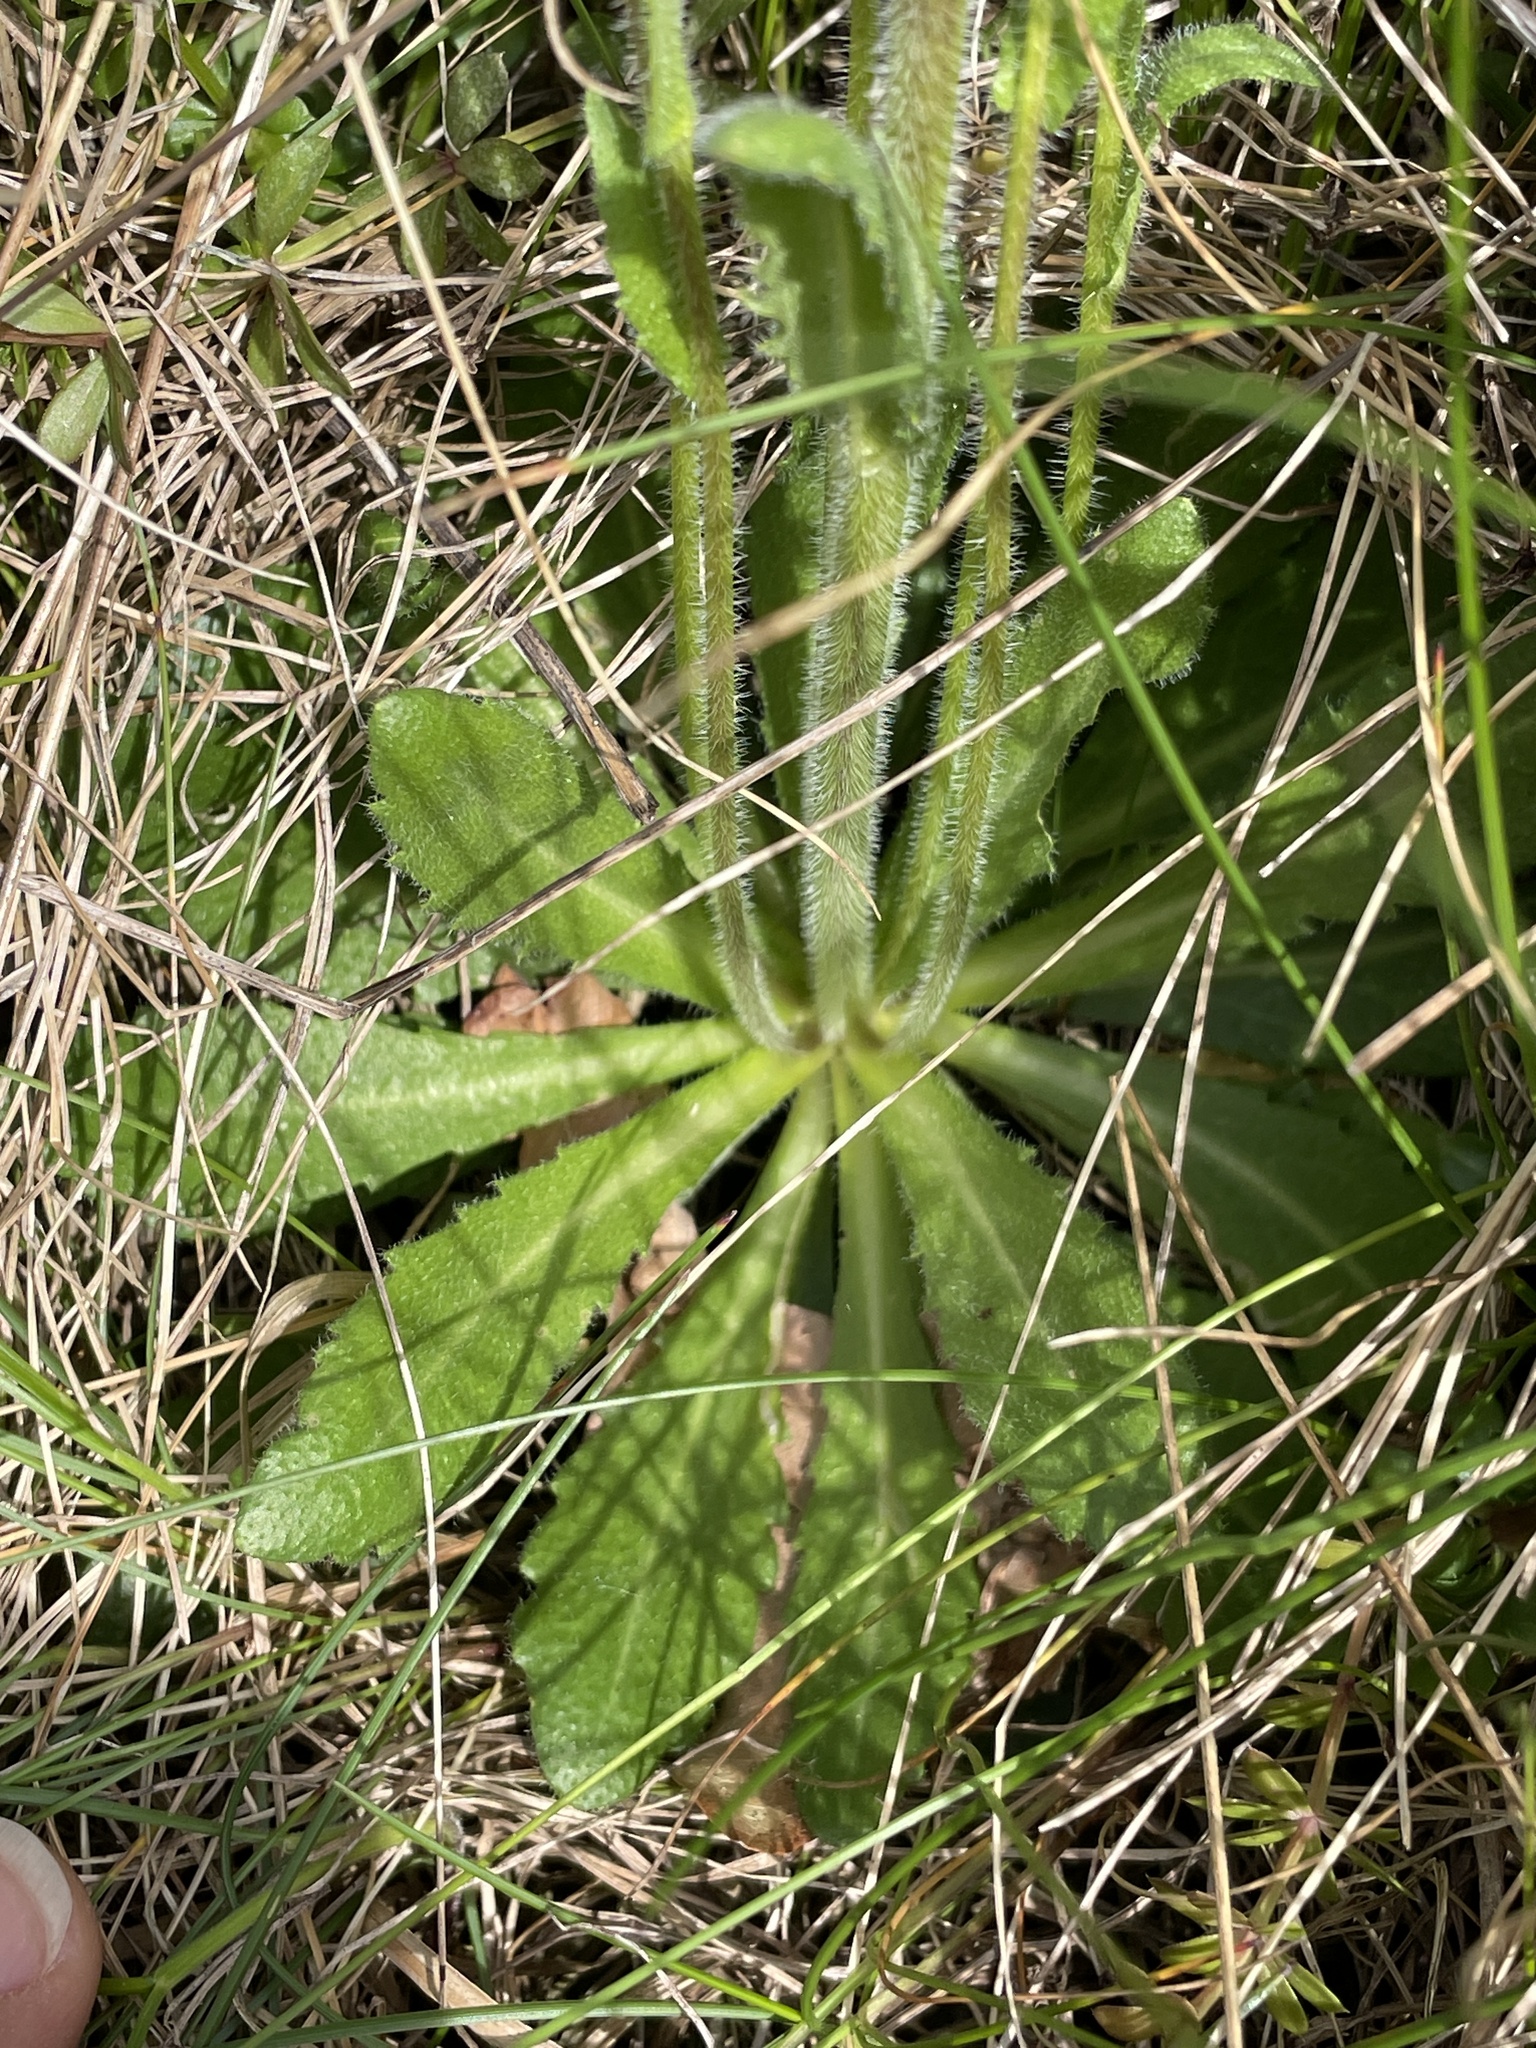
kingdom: Plantae
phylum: Tracheophyta
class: Magnoliopsida
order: Brassicales
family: Brassicaceae
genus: Arabis
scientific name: Arabis hirsuta
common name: Hairy rock-cress
